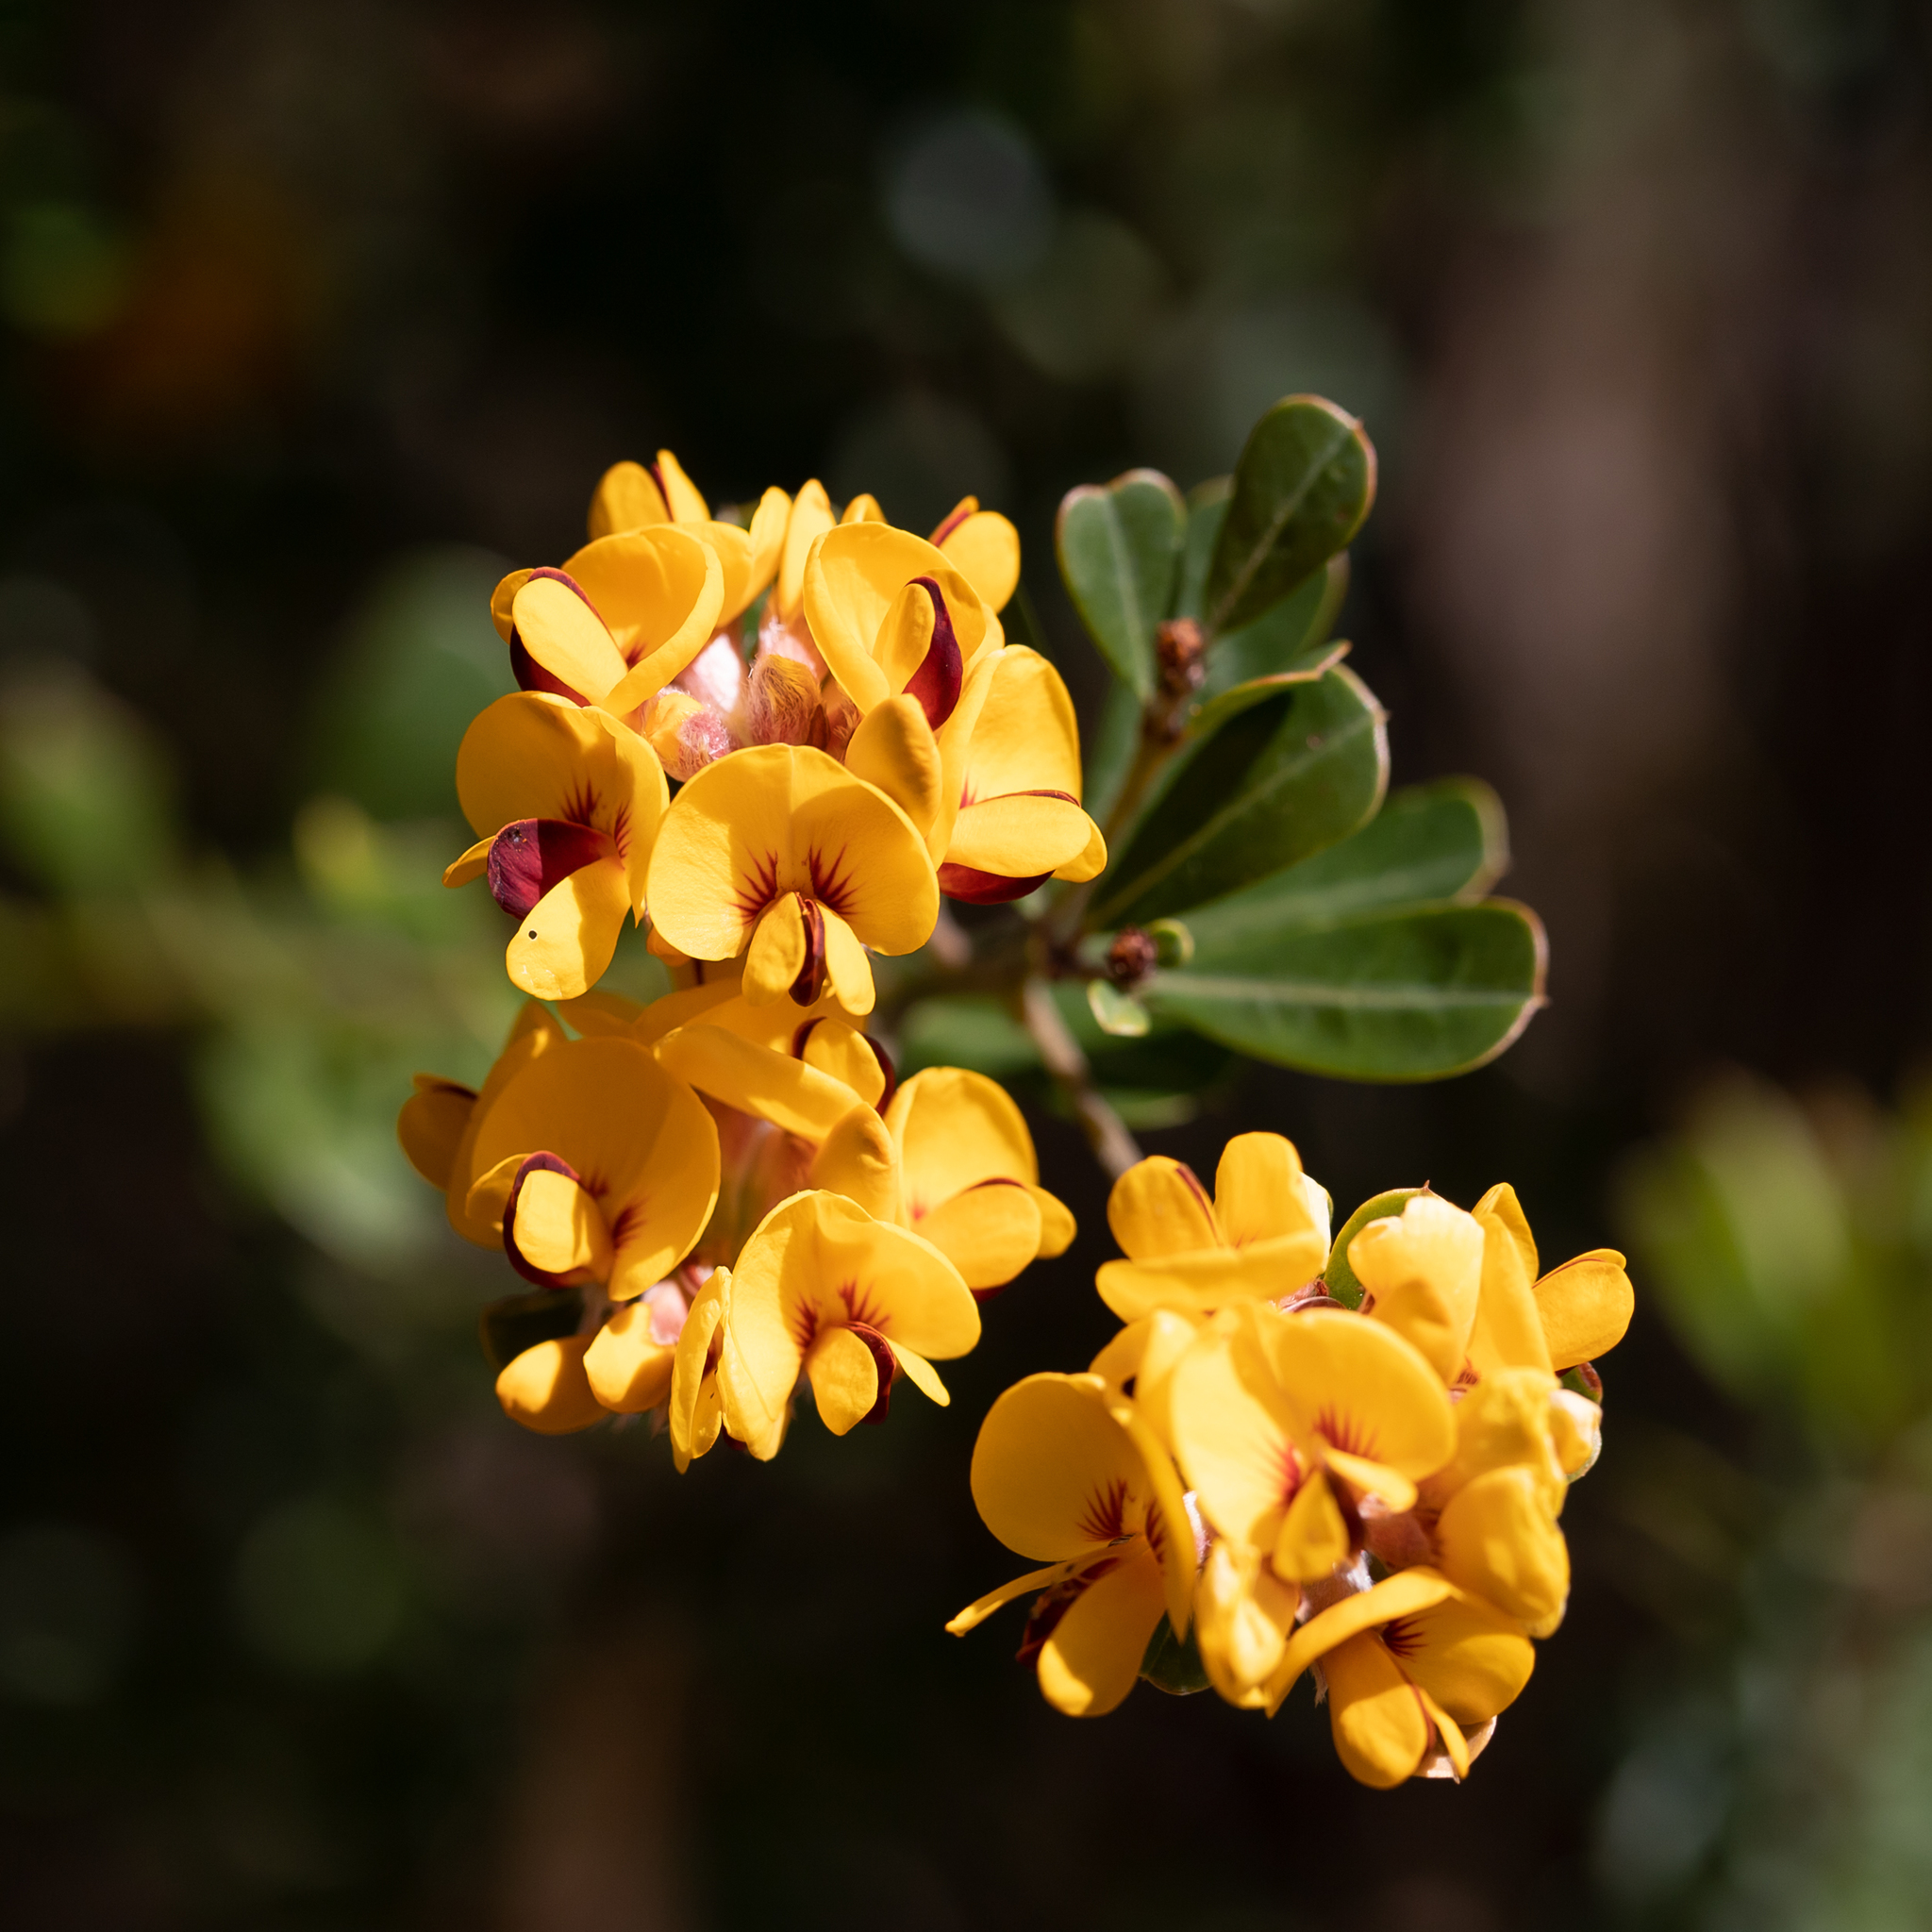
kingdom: Plantae
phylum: Tracheophyta
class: Magnoliopsida
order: Fabales
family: Fabaceae
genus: Pultenaea
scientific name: Pultenaea daphnoides
